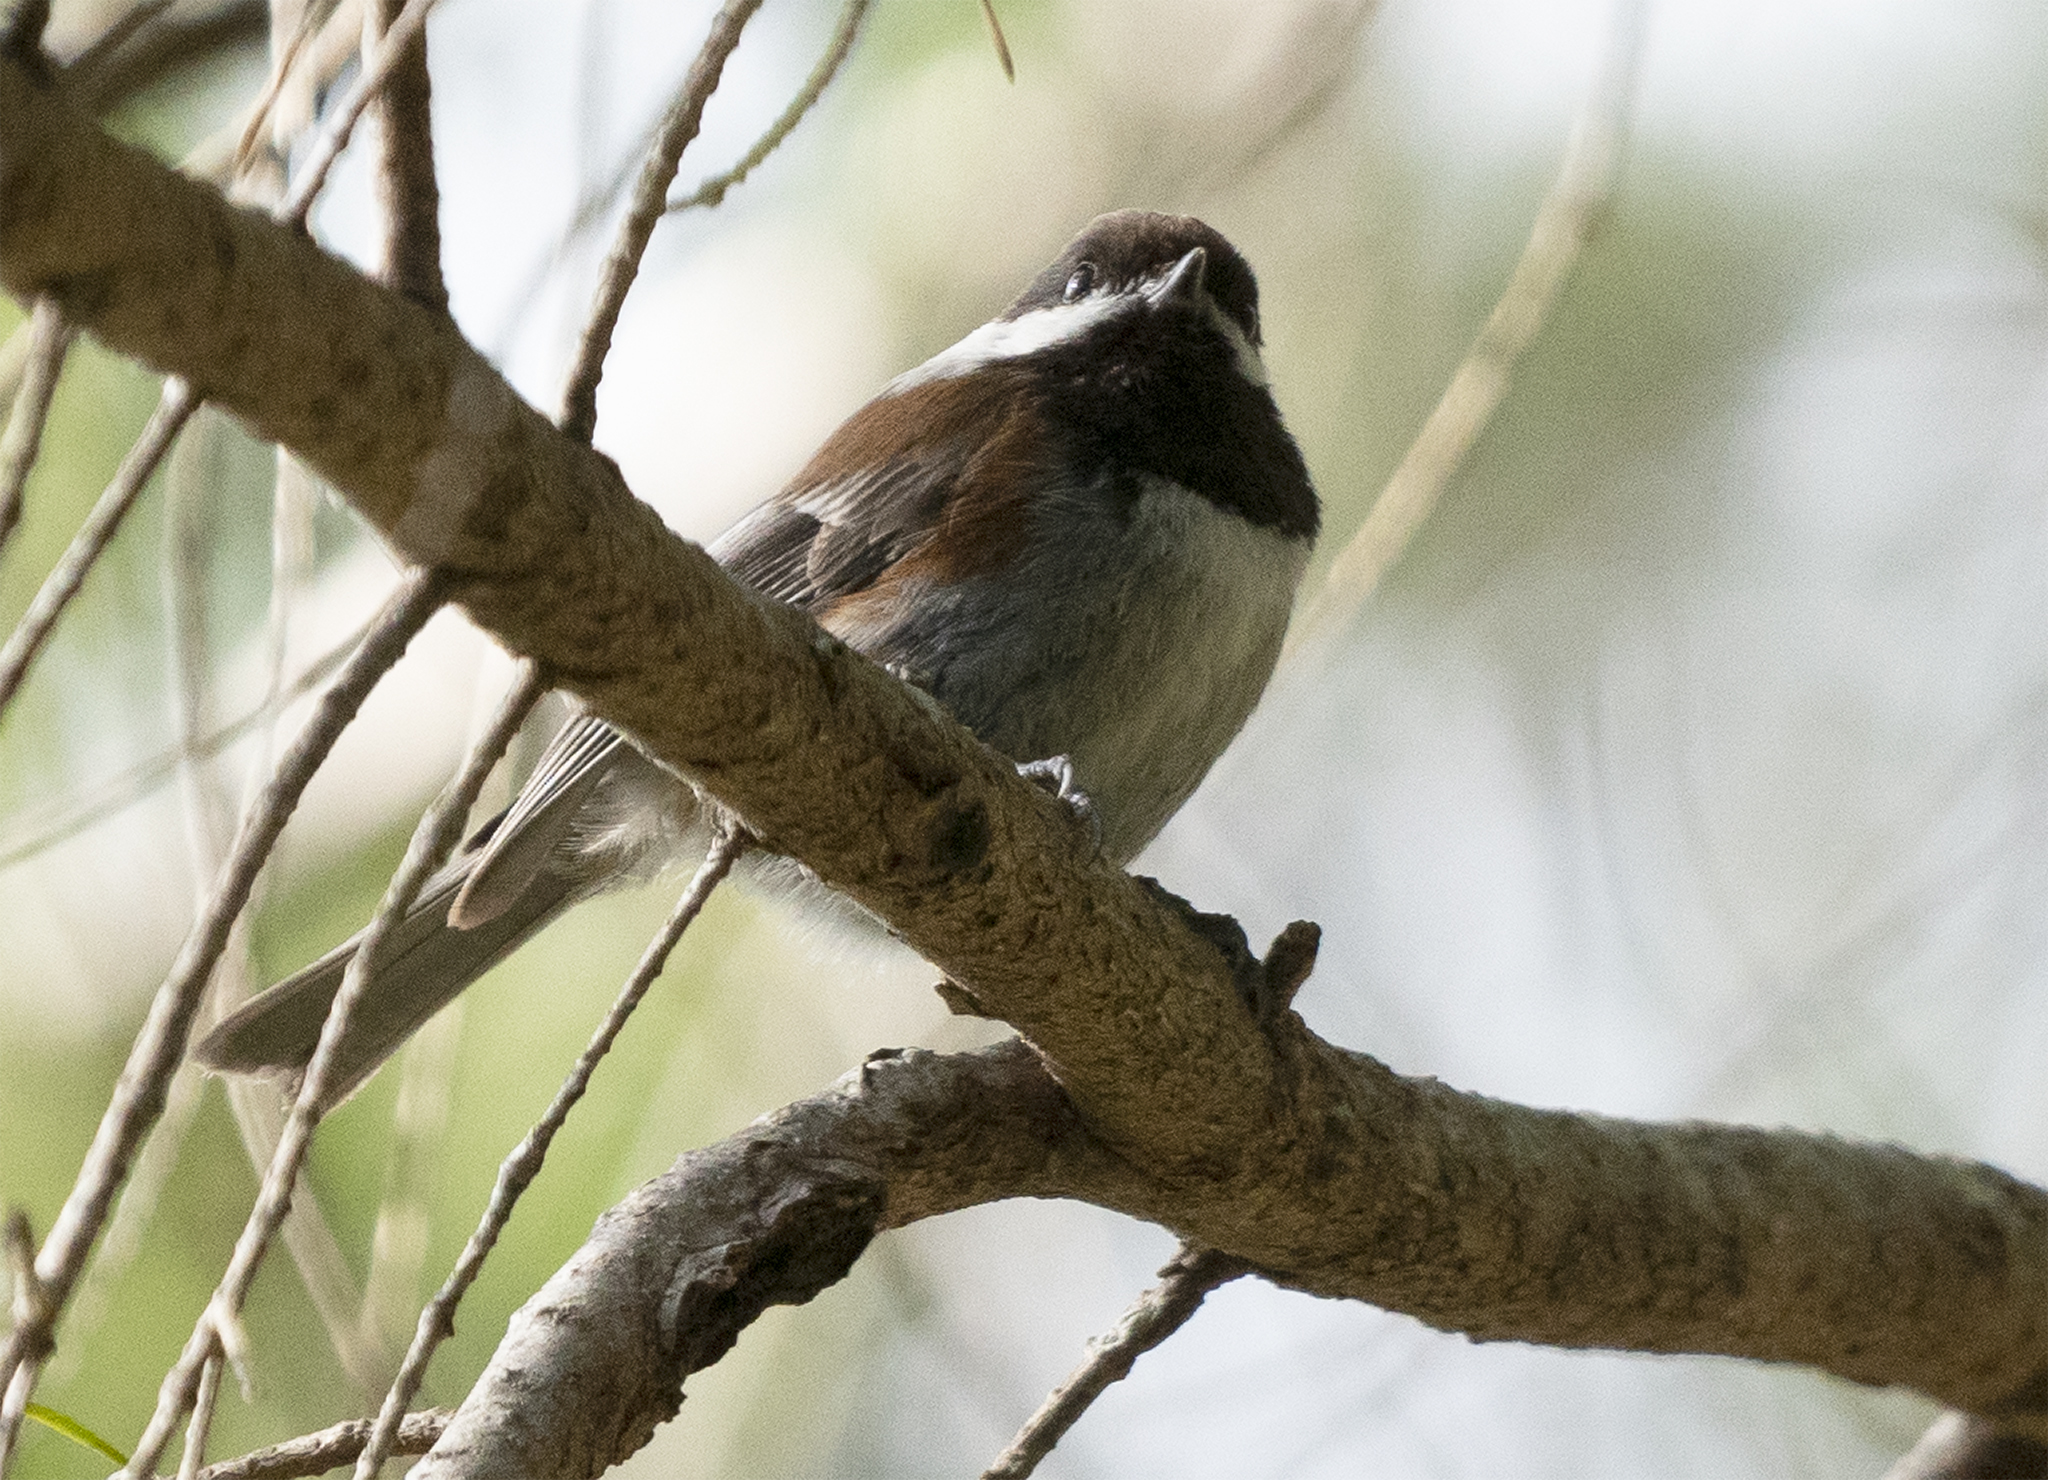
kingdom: Animalia
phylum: Chordata
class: Aves
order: Passeriformes
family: Paridae
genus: Poecile
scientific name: Poecile rufescens
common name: Chestnut-backed chickadee
